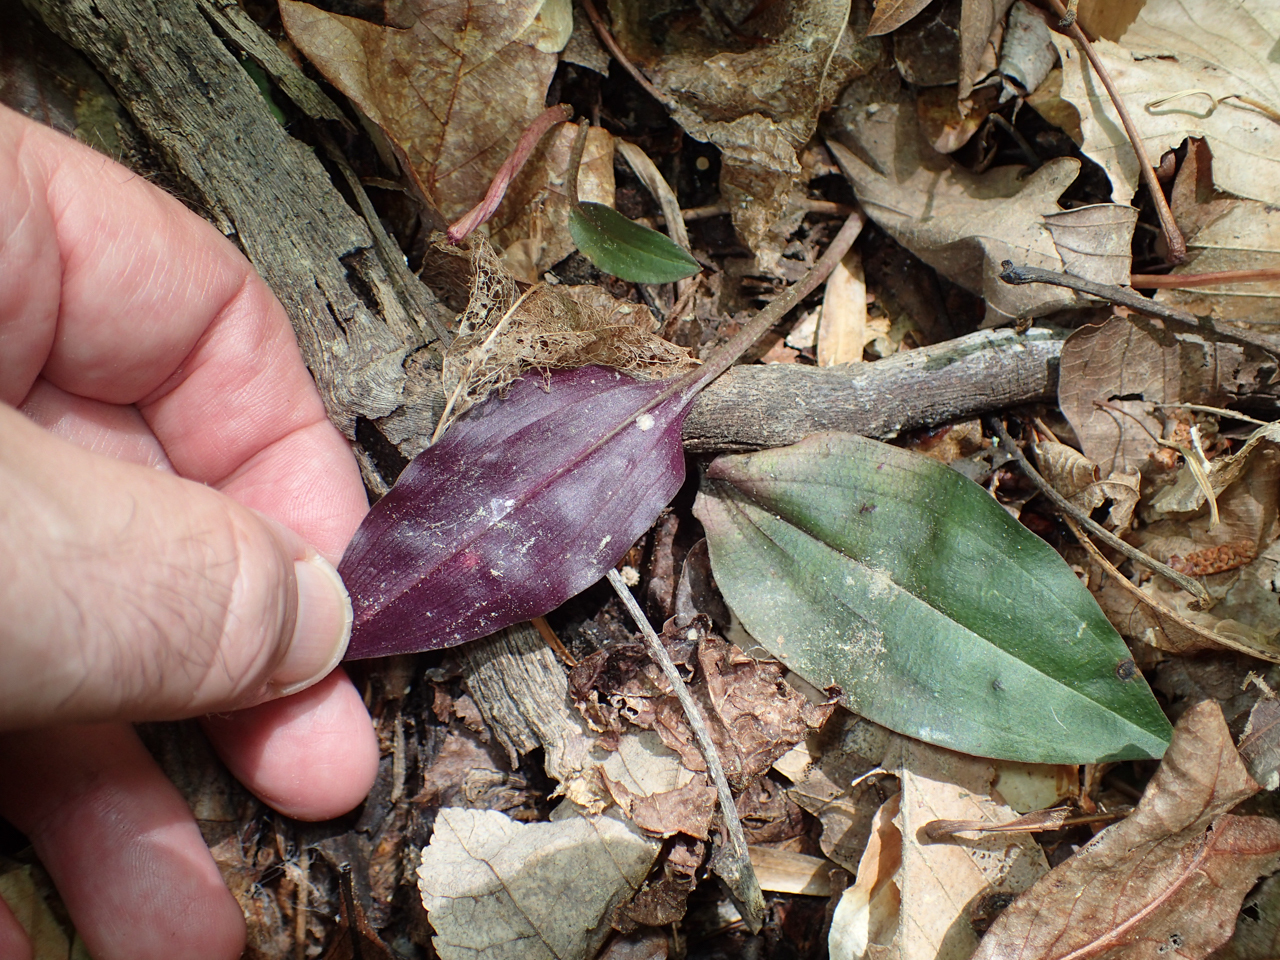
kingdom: Plantae
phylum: Tracheophyta
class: Liliopsida
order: Asparagales
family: Orchidaceae
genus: Tipularia
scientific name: Tipularia discolor
